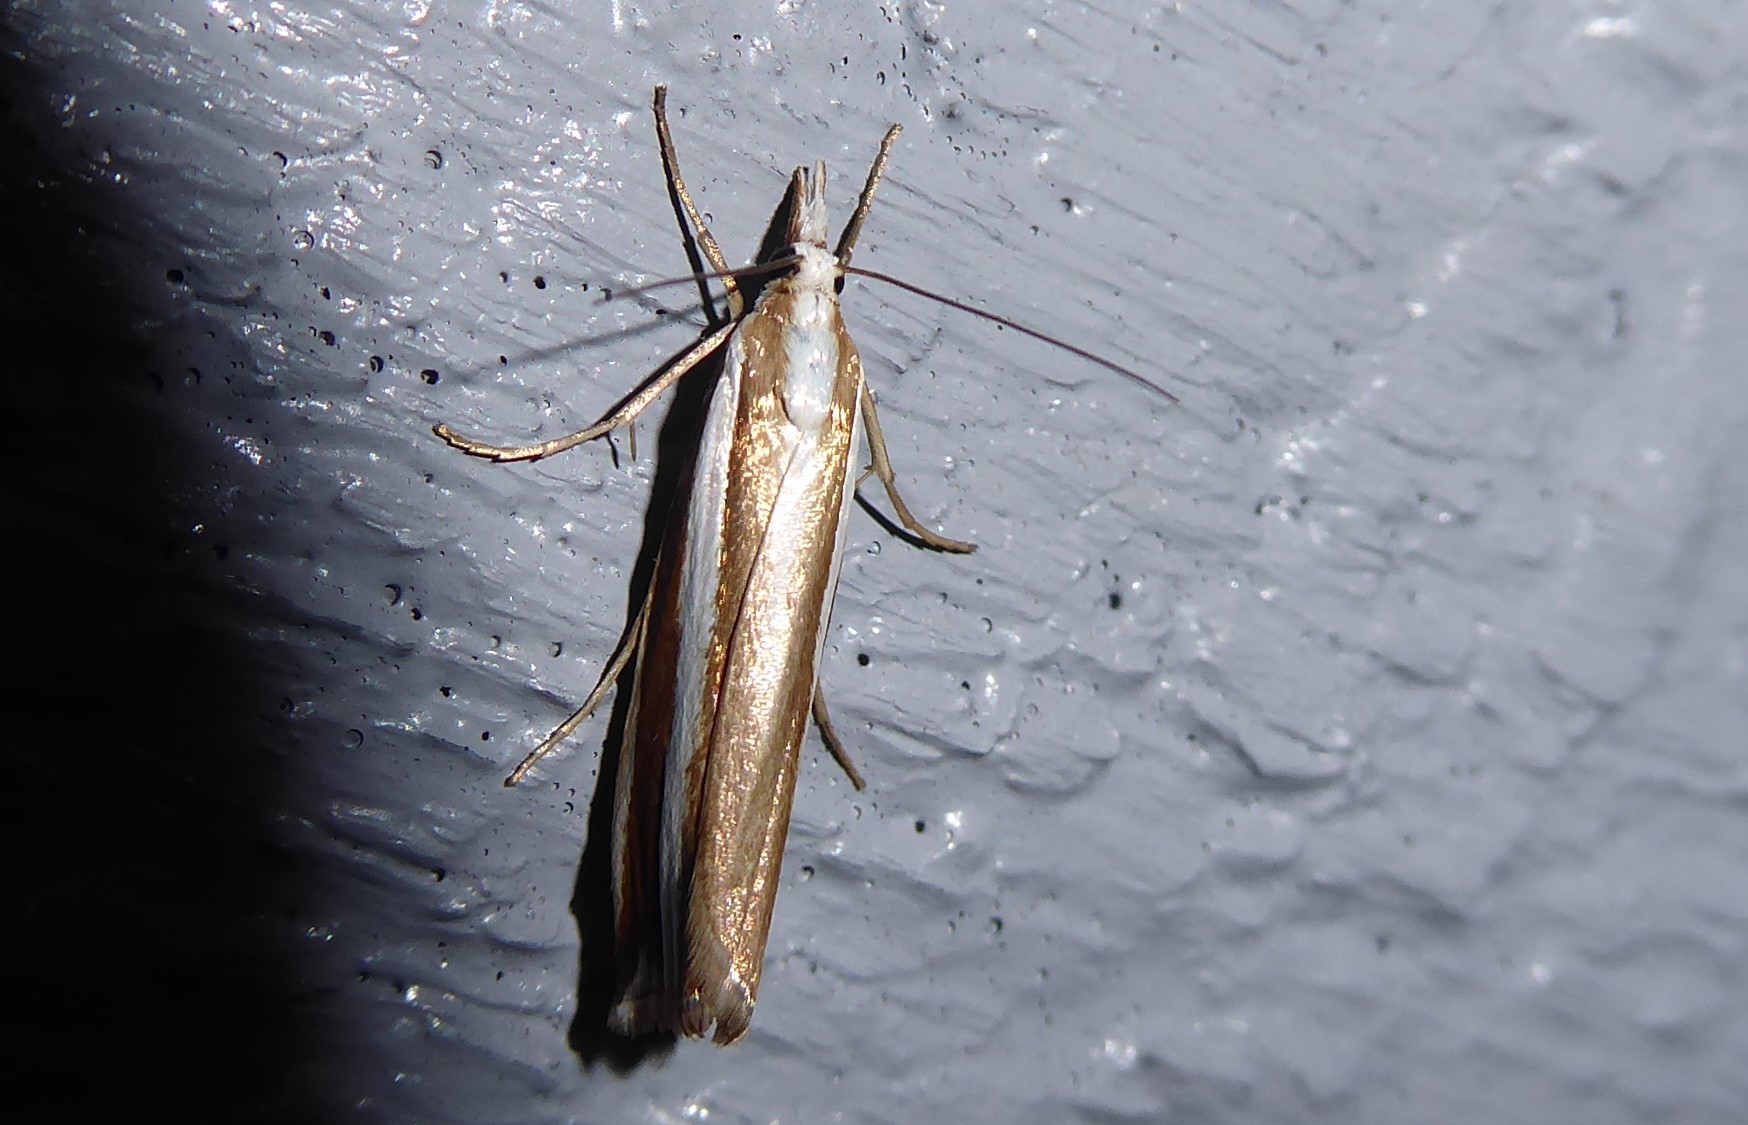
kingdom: Animalia
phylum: Arthropoda
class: Insecta
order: Lepidoptera
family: Crambidae
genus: Orocrambus
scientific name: Orocrambus apicellus
